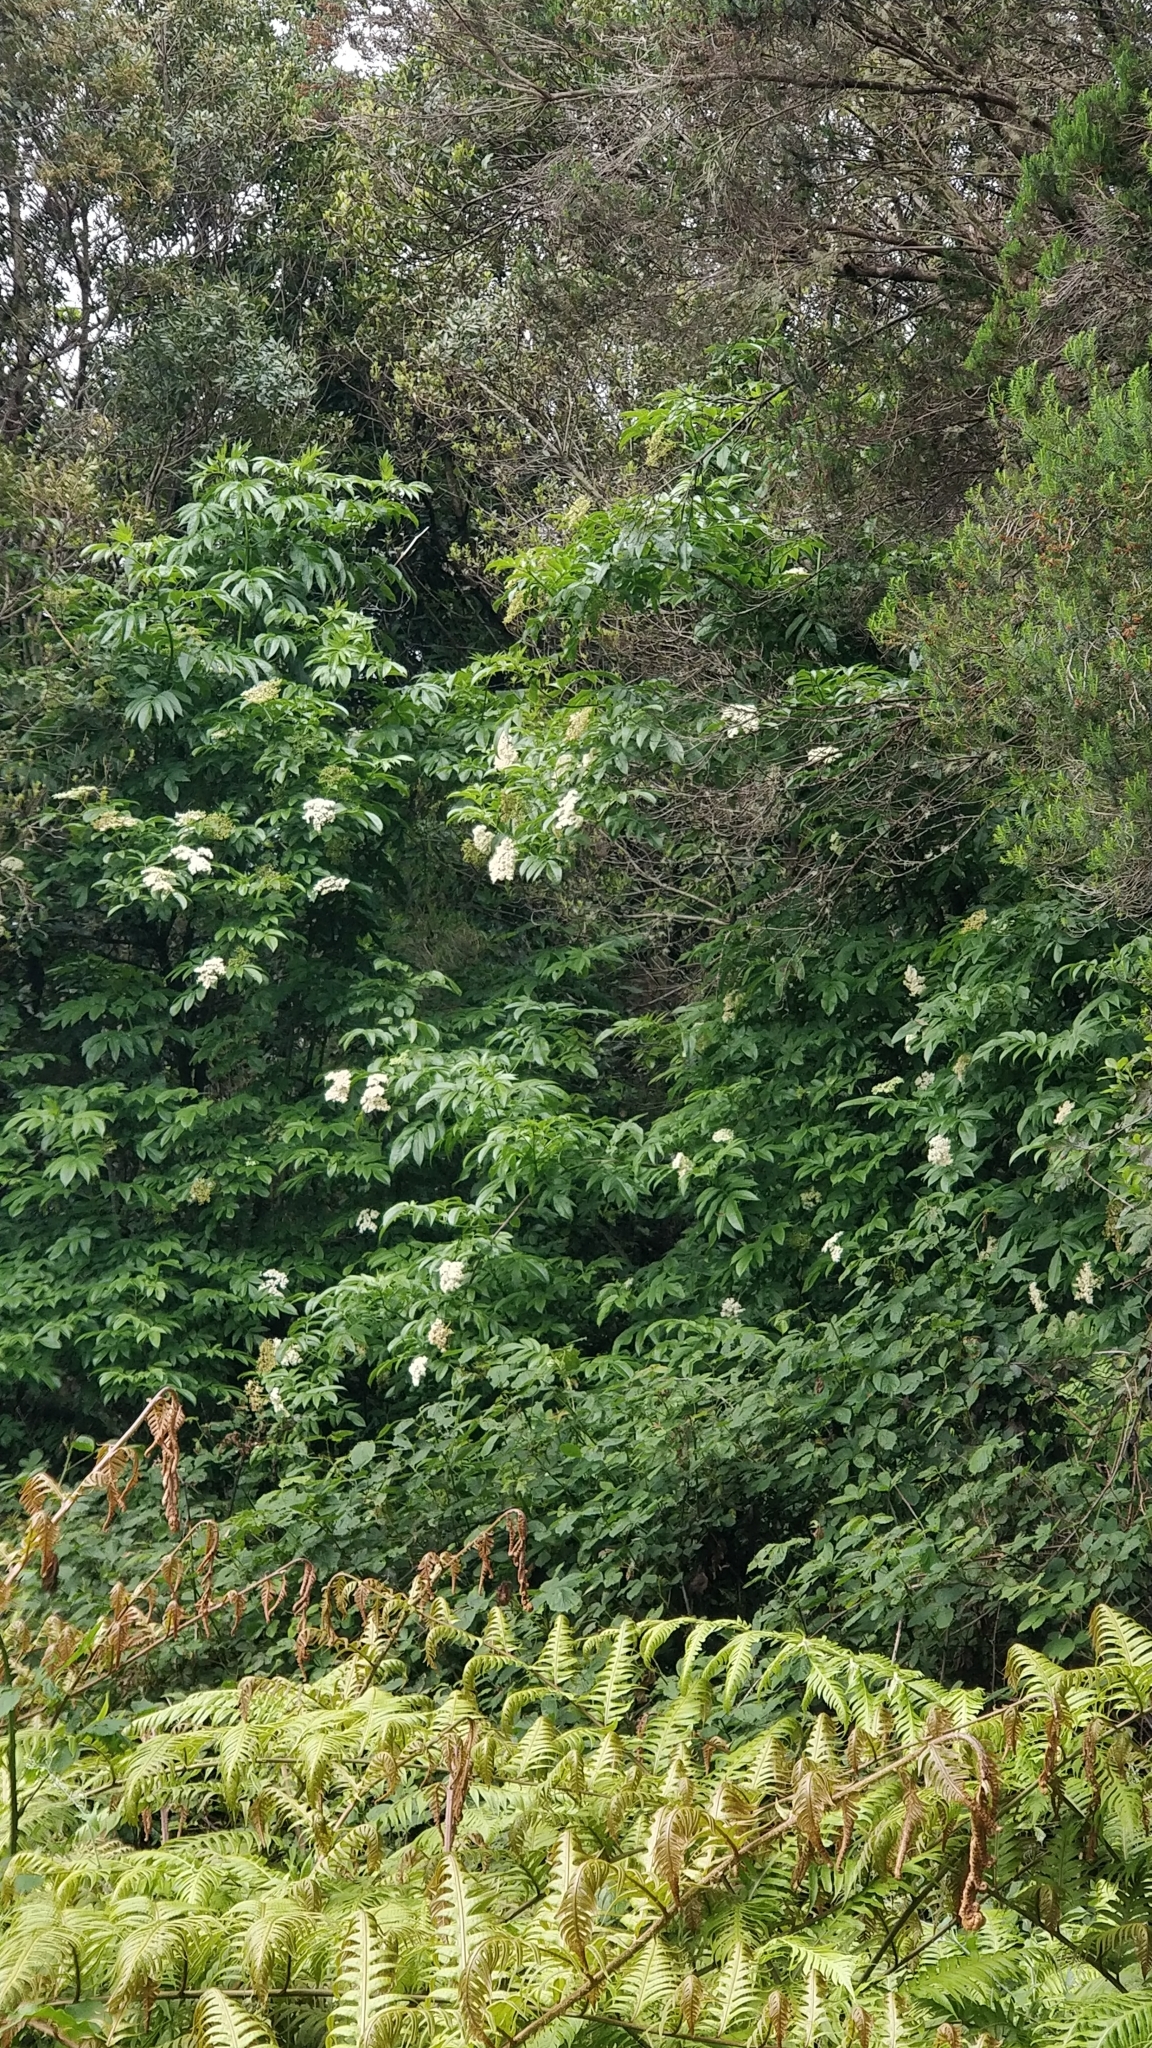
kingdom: Plantae
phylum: Tracheophyta
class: Magnoliopsida
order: Dipsacales
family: Viburnaceae
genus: Sambucus
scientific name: Sambucus lanceolata
